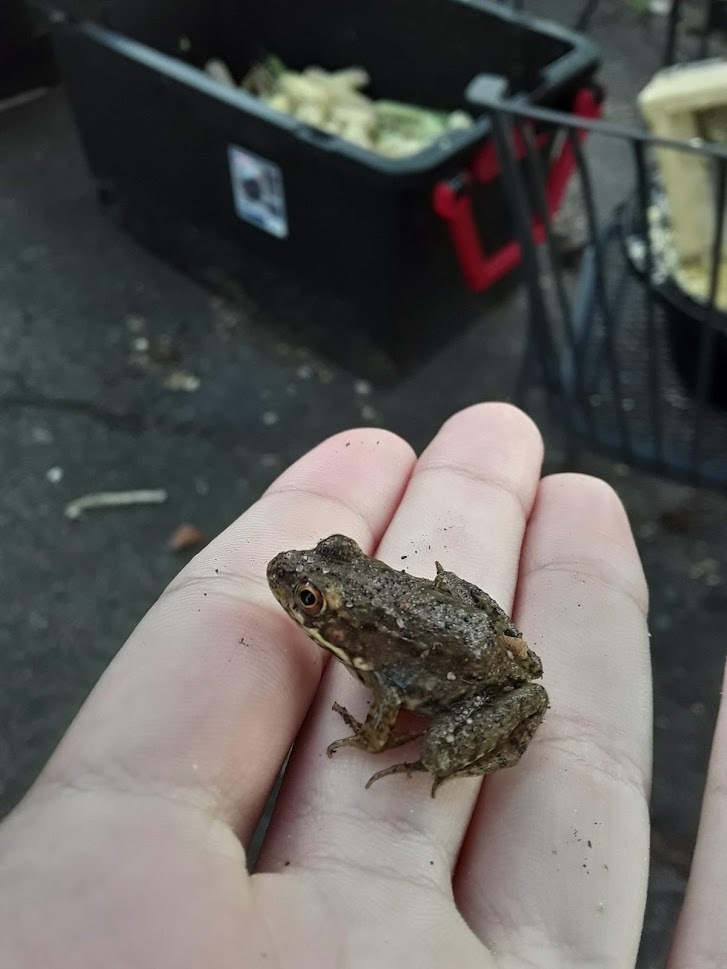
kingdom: Animalia
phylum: Chordata
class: Amphibia
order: Anura
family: Ranidae
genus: Lithobates
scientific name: Lithobates clamitans
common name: Green frog
